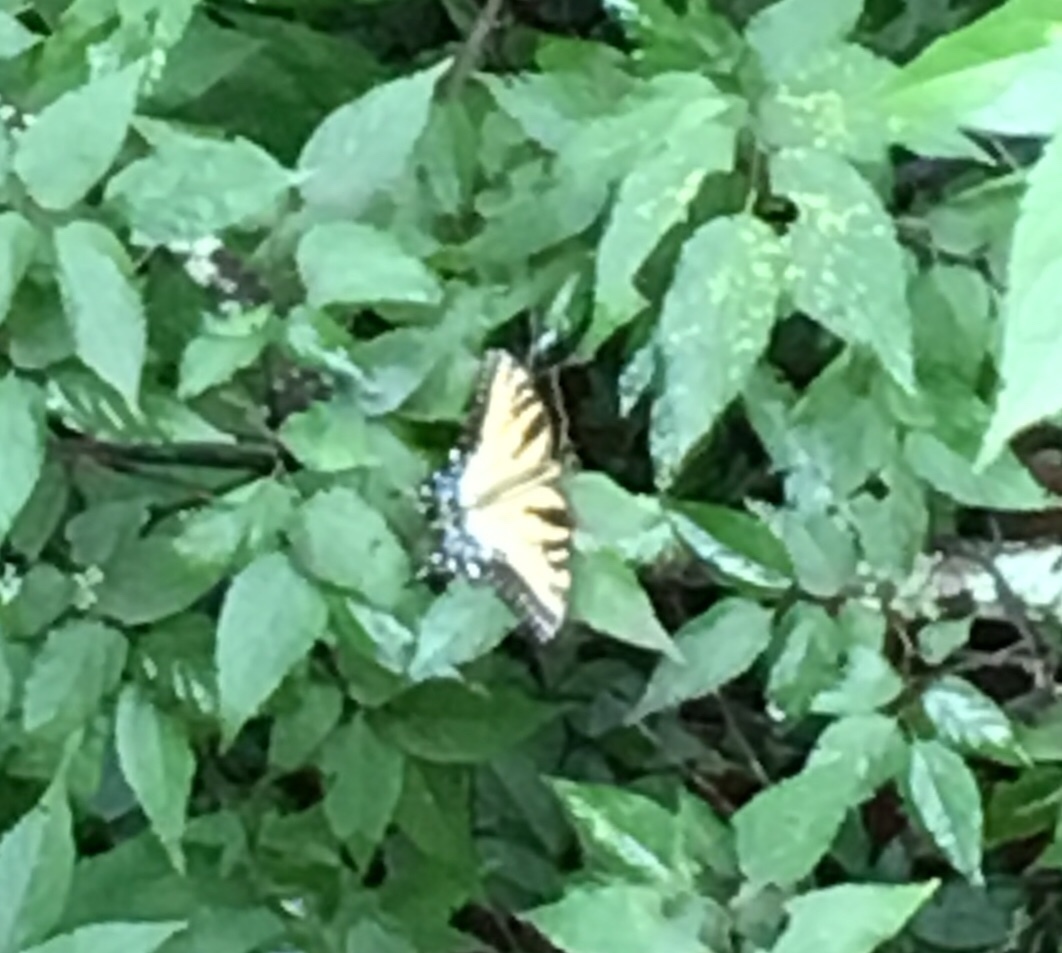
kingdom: Animalia
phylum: Arthropoda
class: Insecta
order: Lepidoptera
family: Papilionidae
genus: Papilio
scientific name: Papilio glaucus
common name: Tiger swallowtail
